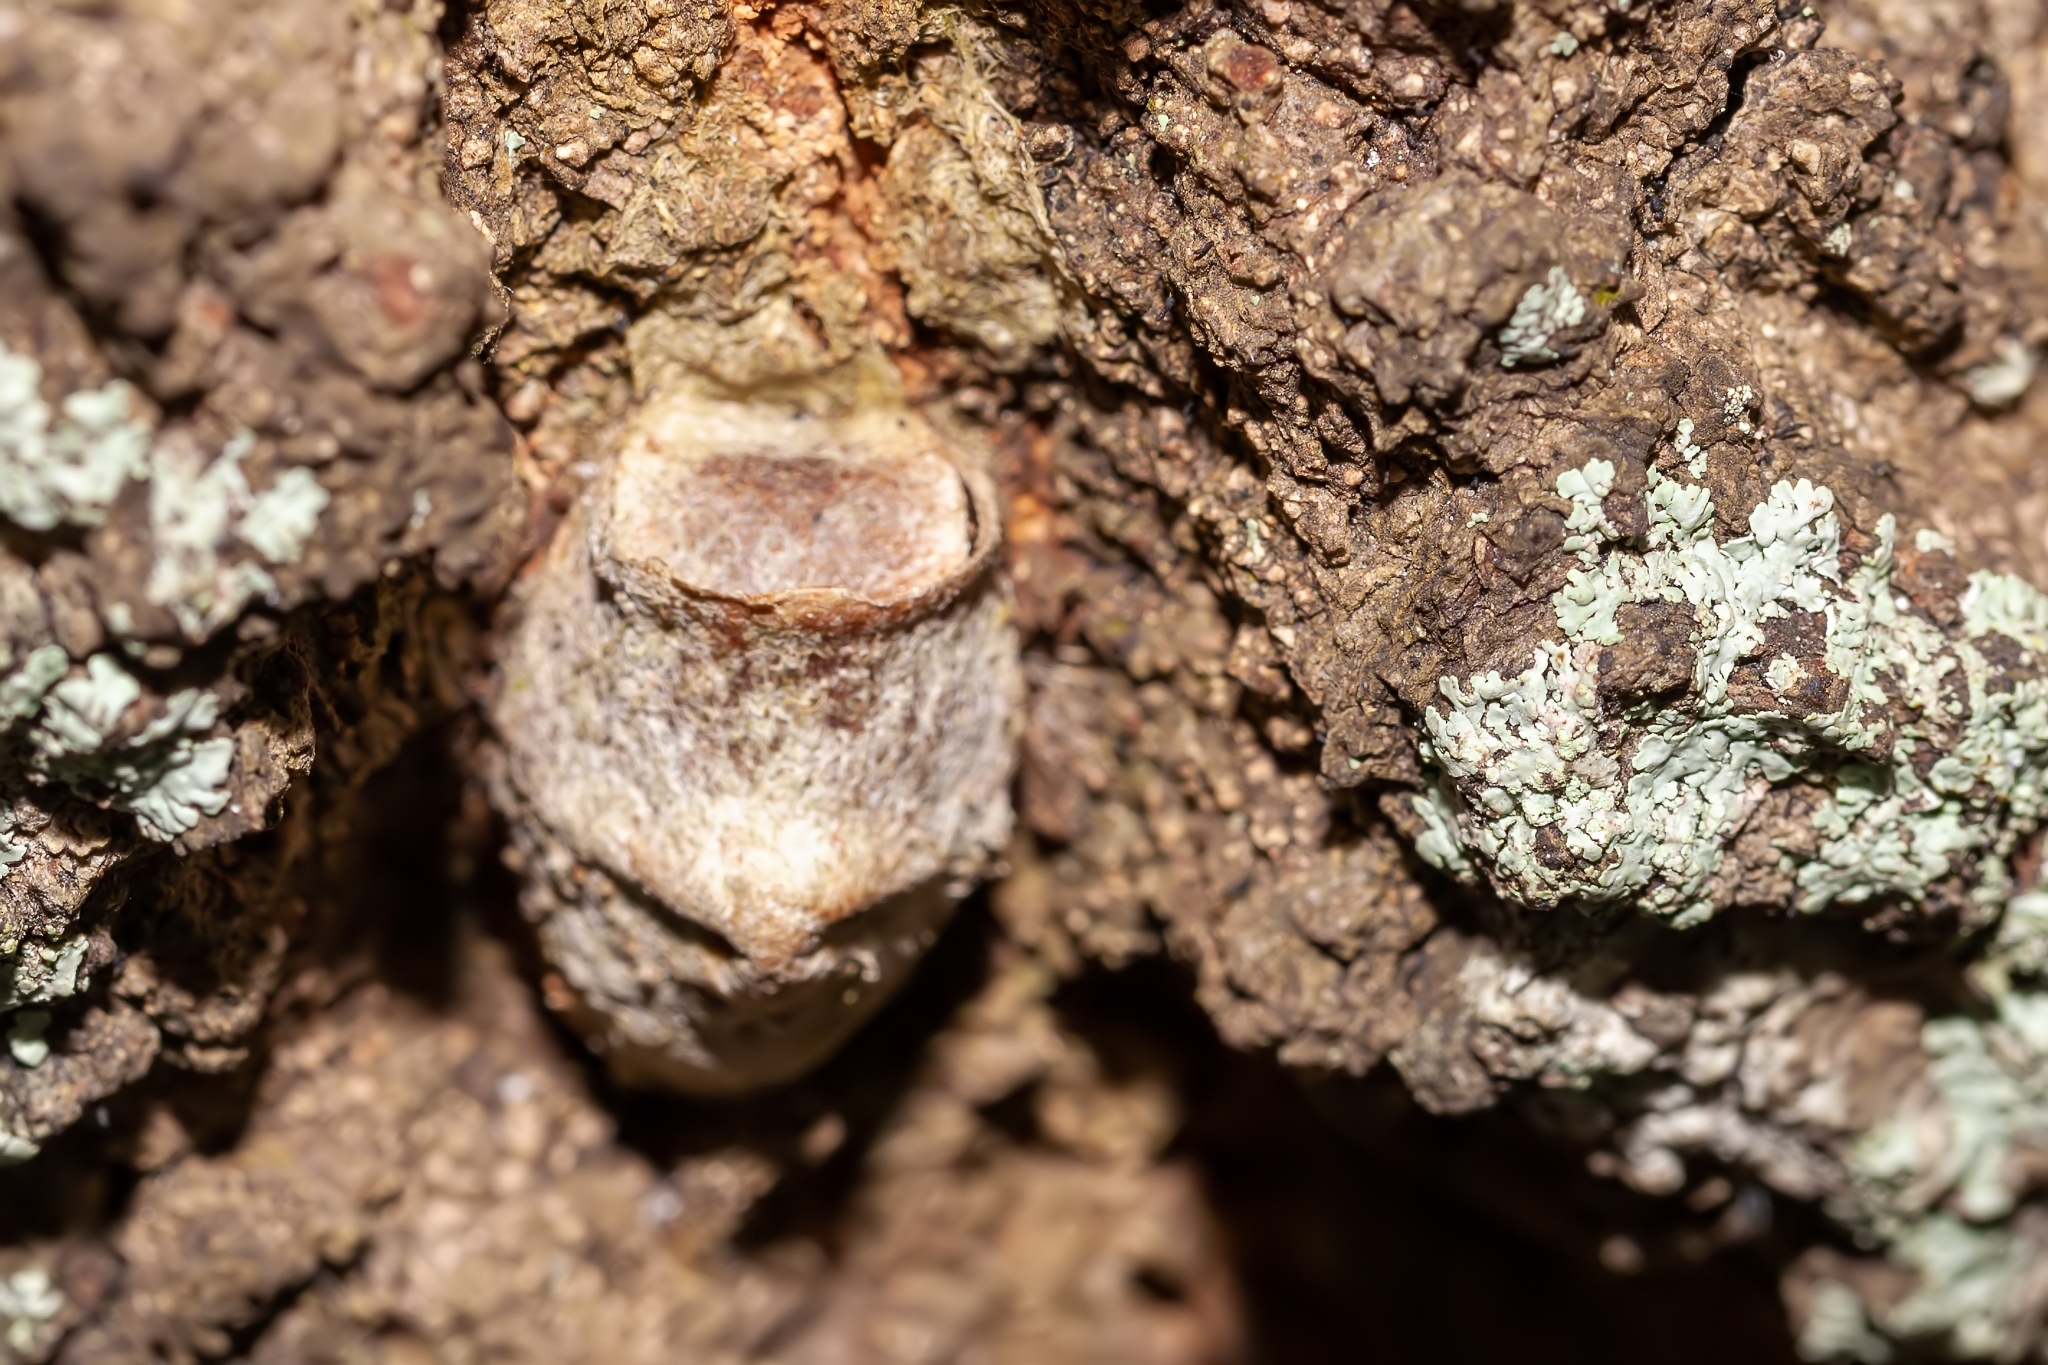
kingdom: Animalia
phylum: Arthropoda
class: Insecta
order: Lepidoptera
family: Megalopygidae
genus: Megalopyge
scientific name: Megalopyge
